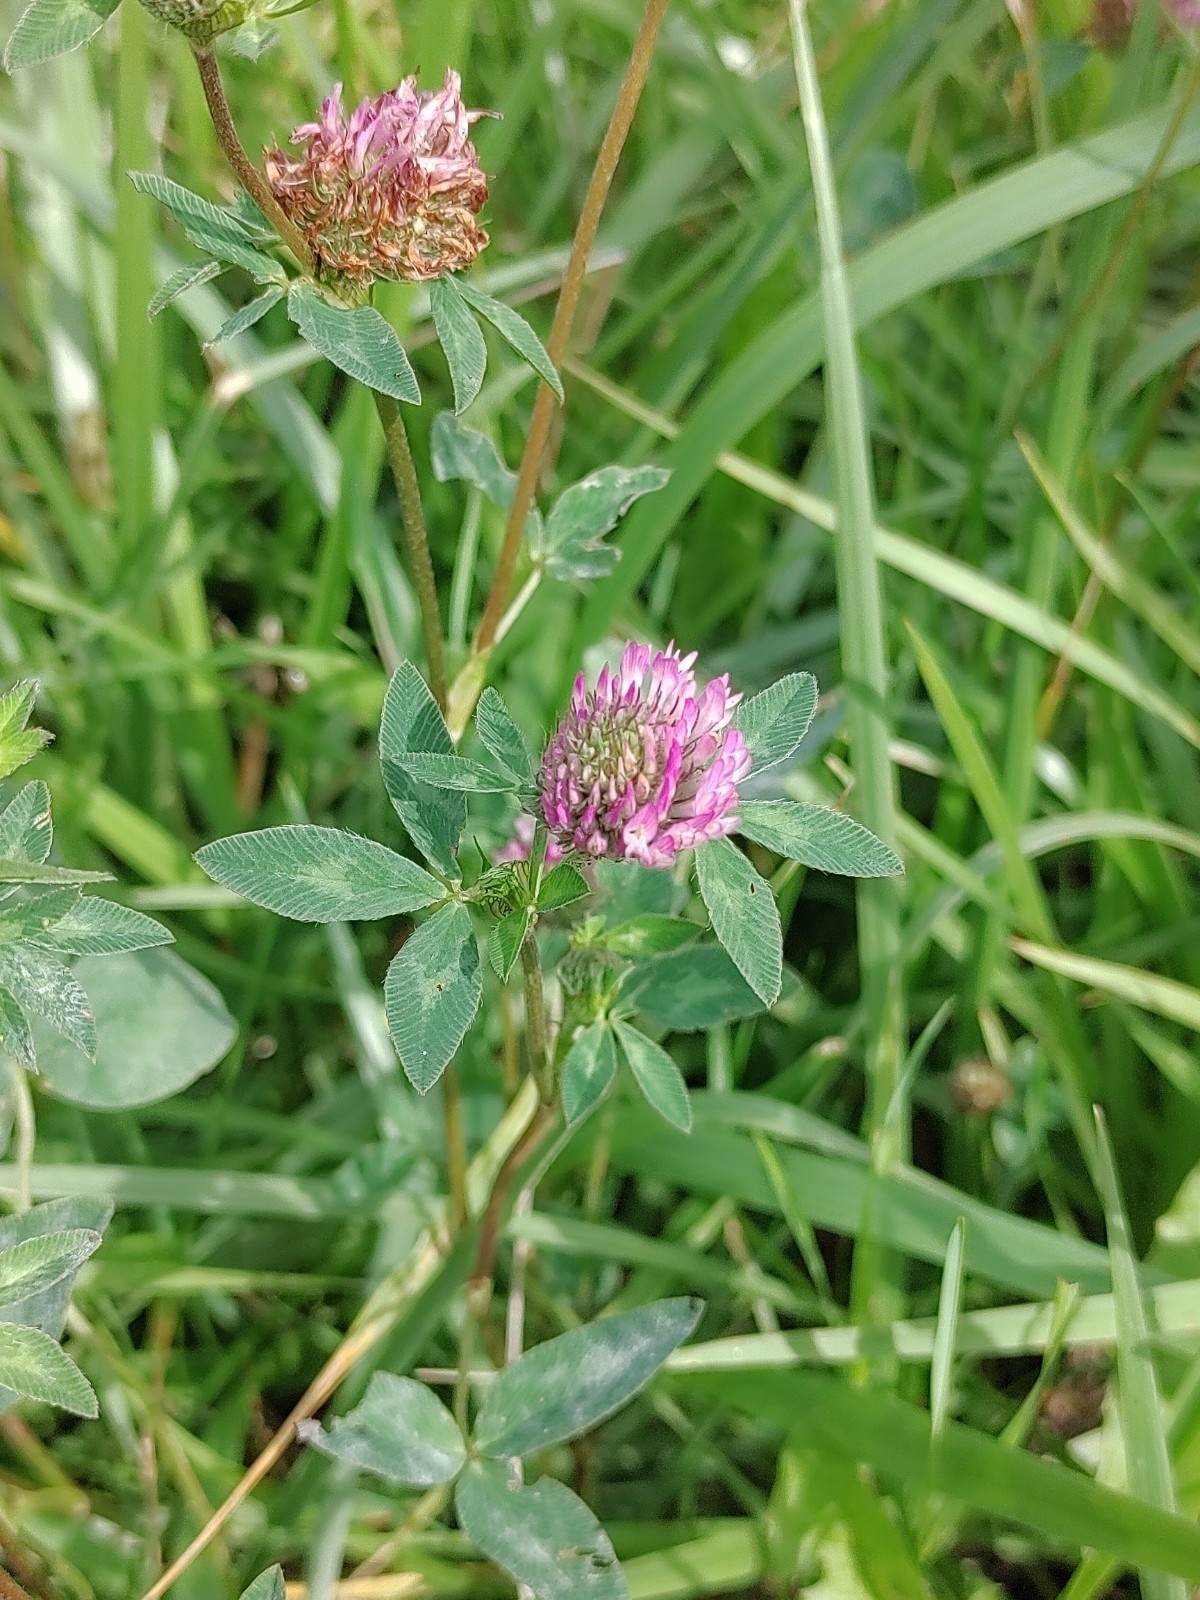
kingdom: Plantae
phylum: Tracheophyta
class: Magnoliopsida
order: Fabales
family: Fabaceae
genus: Trifolium
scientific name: Trifolium pratense
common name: Red clover
